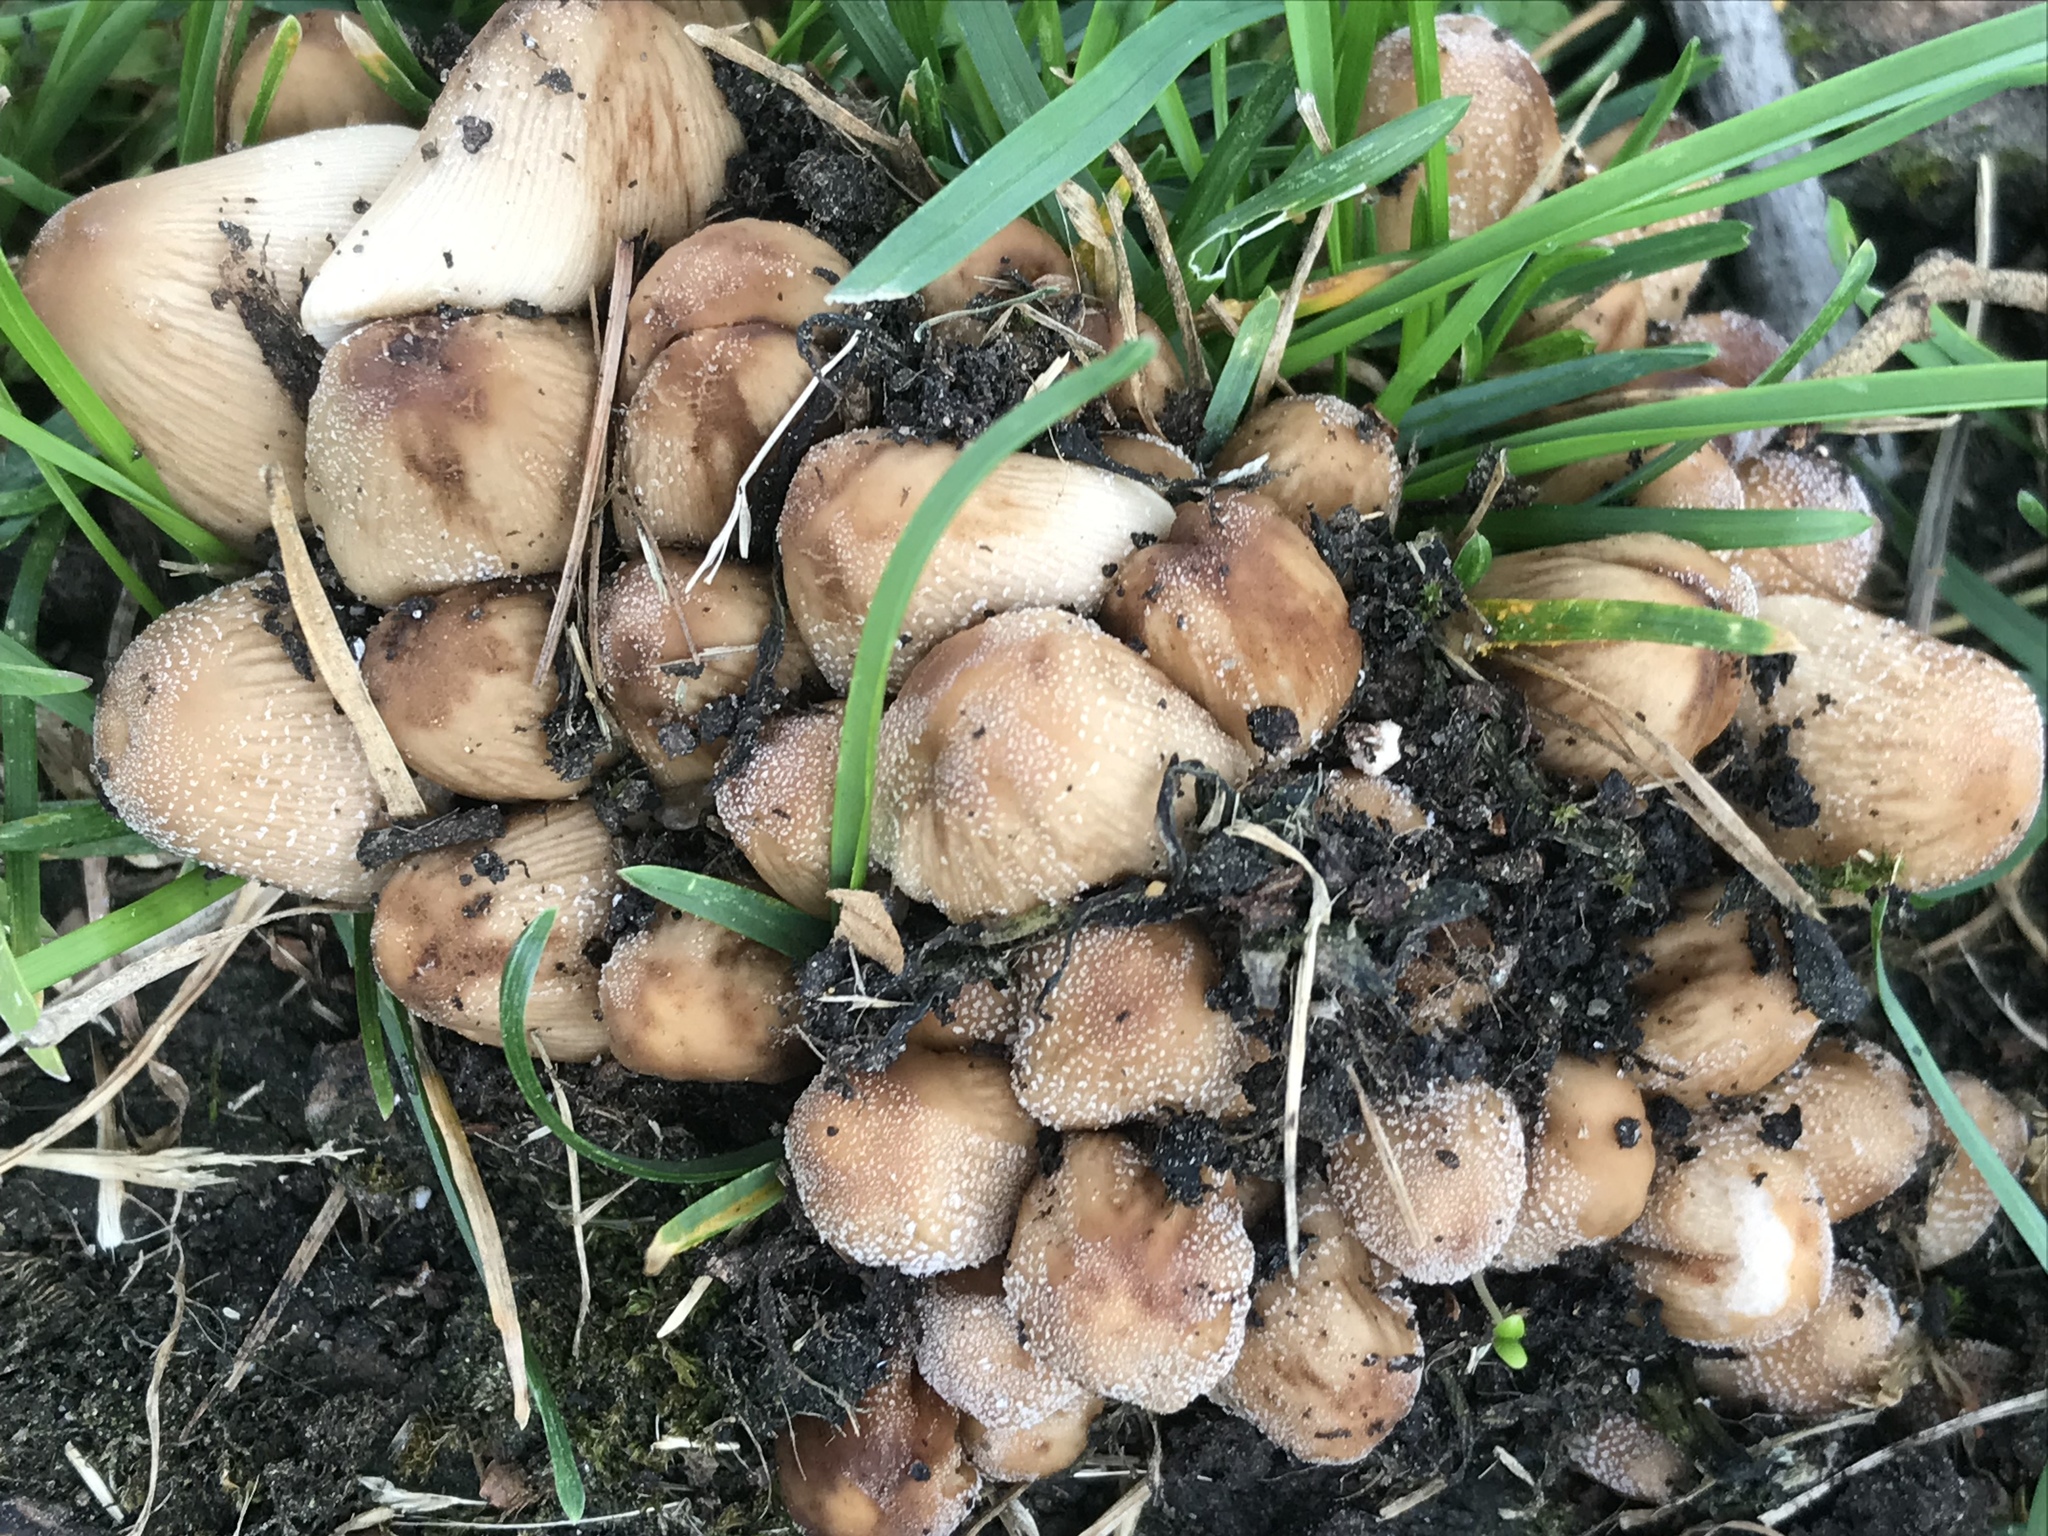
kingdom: Fungi
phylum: Basidiomycota
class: Agaricomycetes
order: Agaricales
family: Psathyrellaceae
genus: Coprinellus
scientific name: Coprinellus micaceus
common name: Glistening ink-cap
